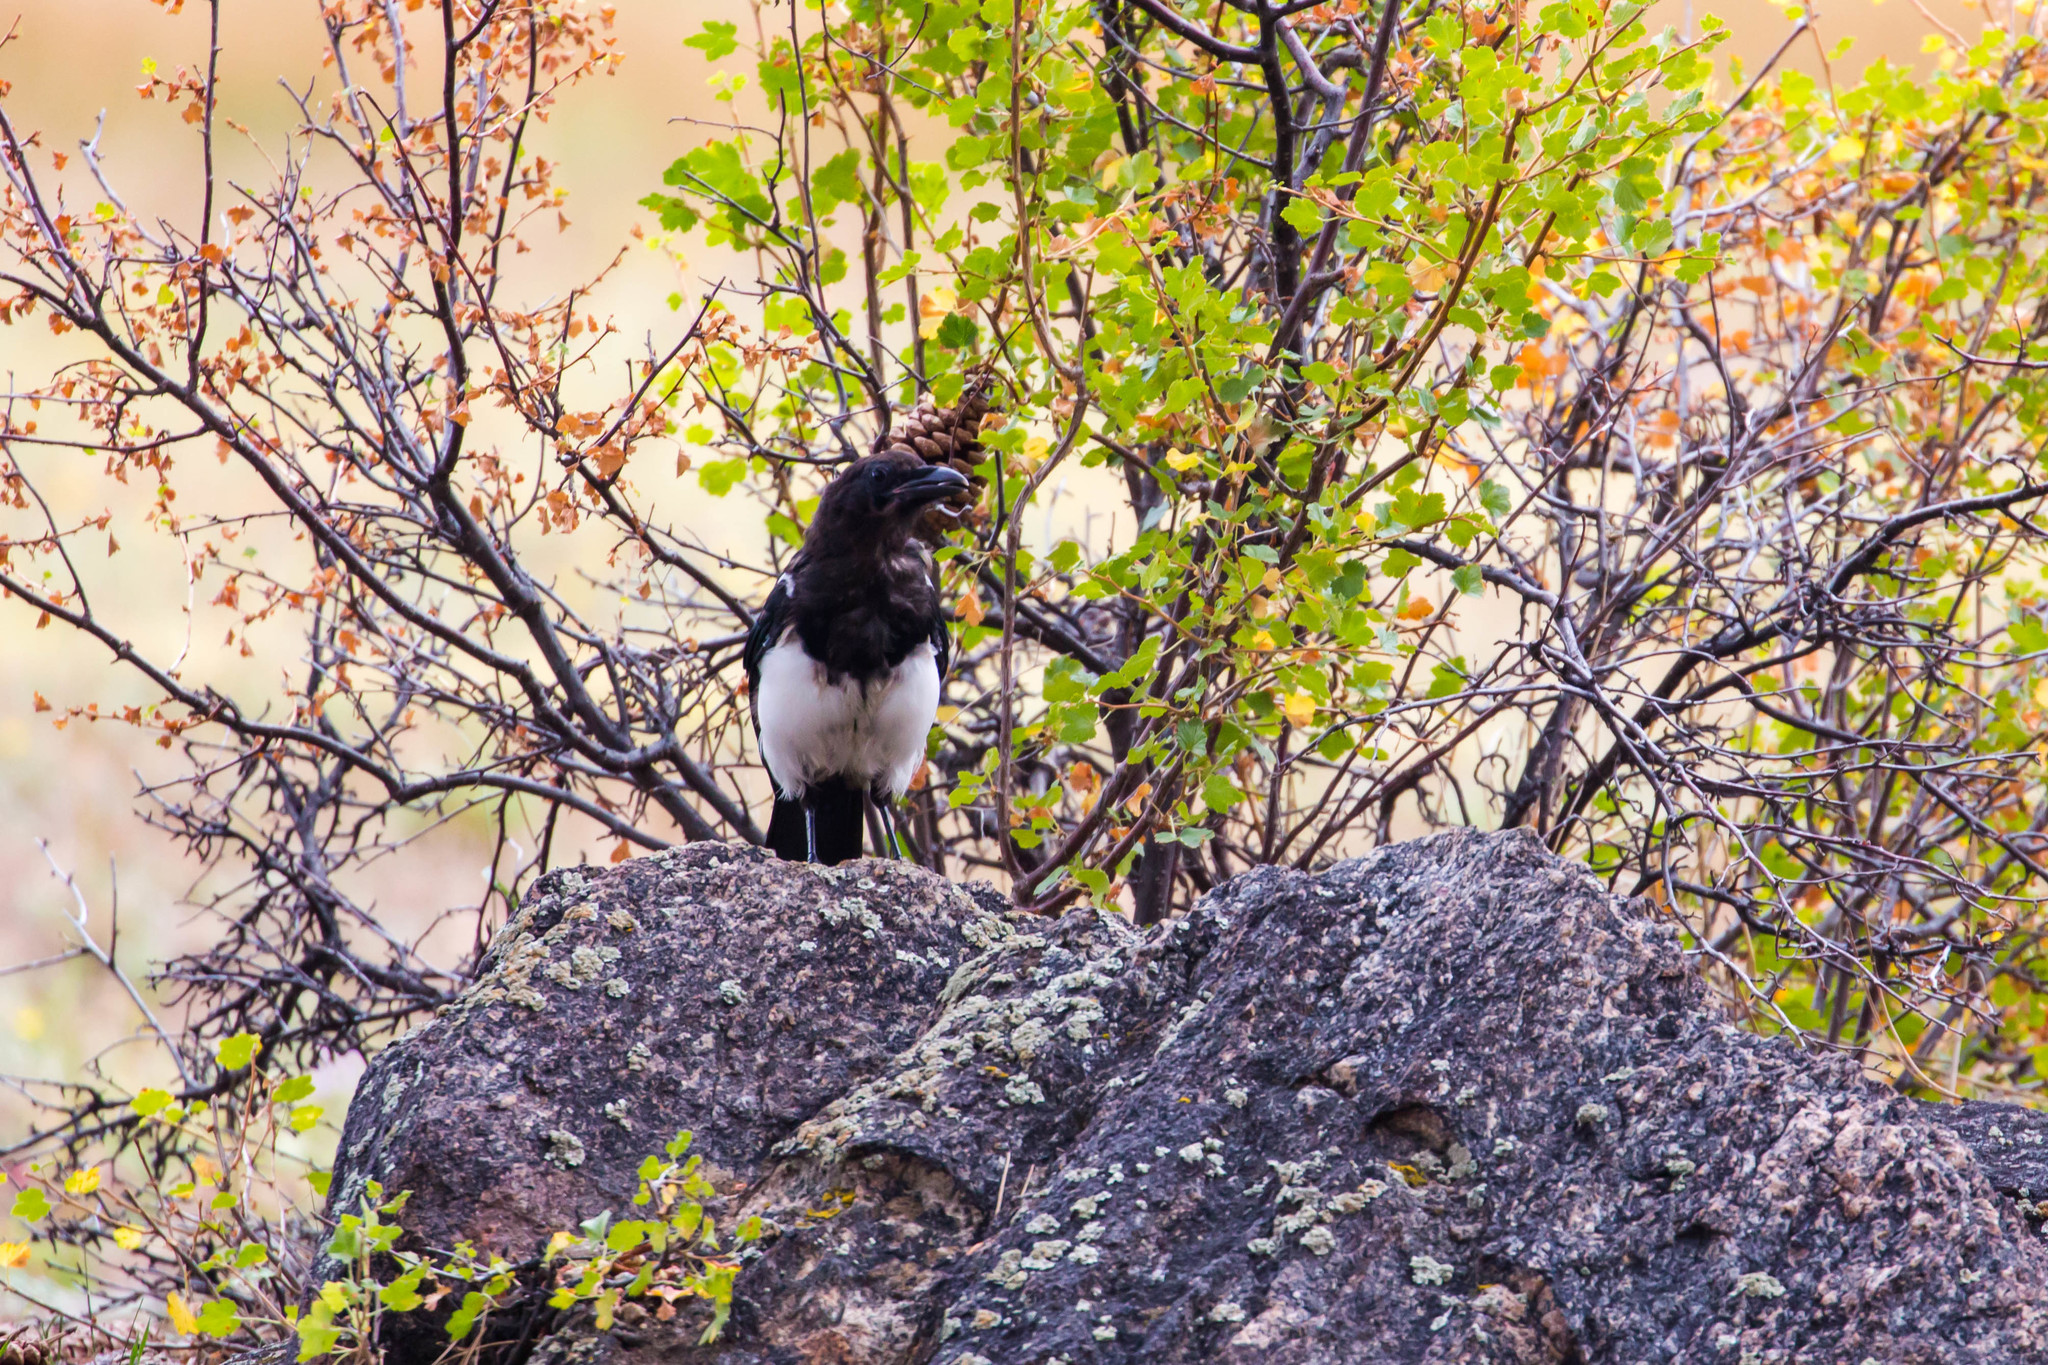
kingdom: Animalia
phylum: Chordata
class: Aves
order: Passeriformes
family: Corvidae
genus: Pica
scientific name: Pica hudsonia
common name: Black-billed magpie
